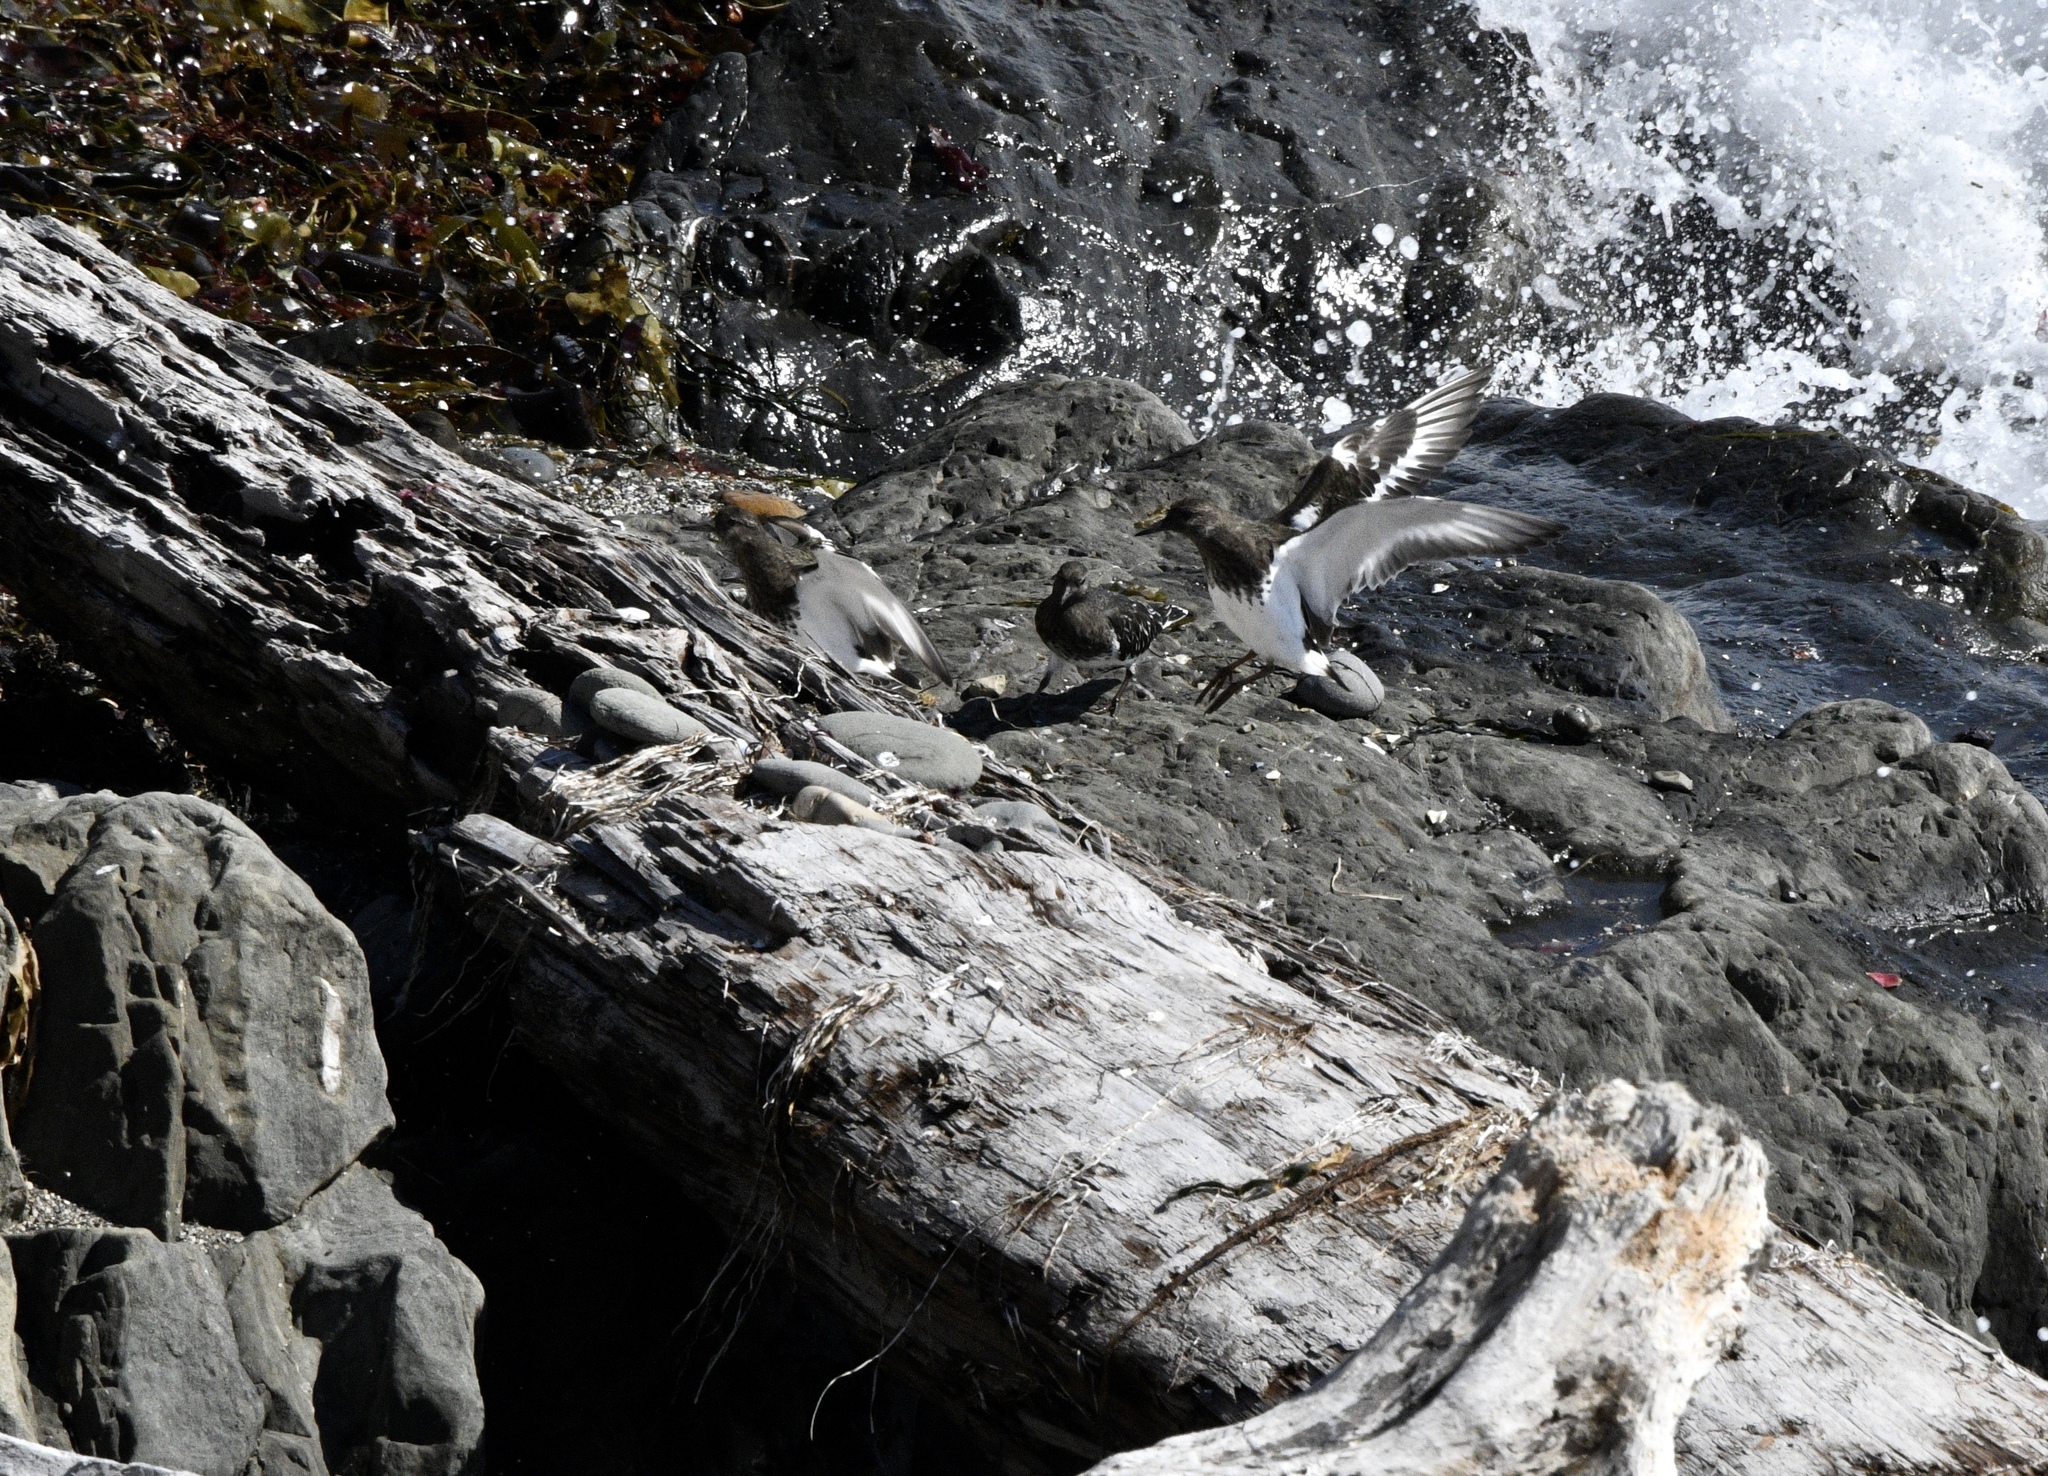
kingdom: Animalia
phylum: Chordata
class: Aves
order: Charadriiformes
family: Scolopacidae
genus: Arenaria
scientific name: Arenaria melanocephala
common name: Black turnstone
